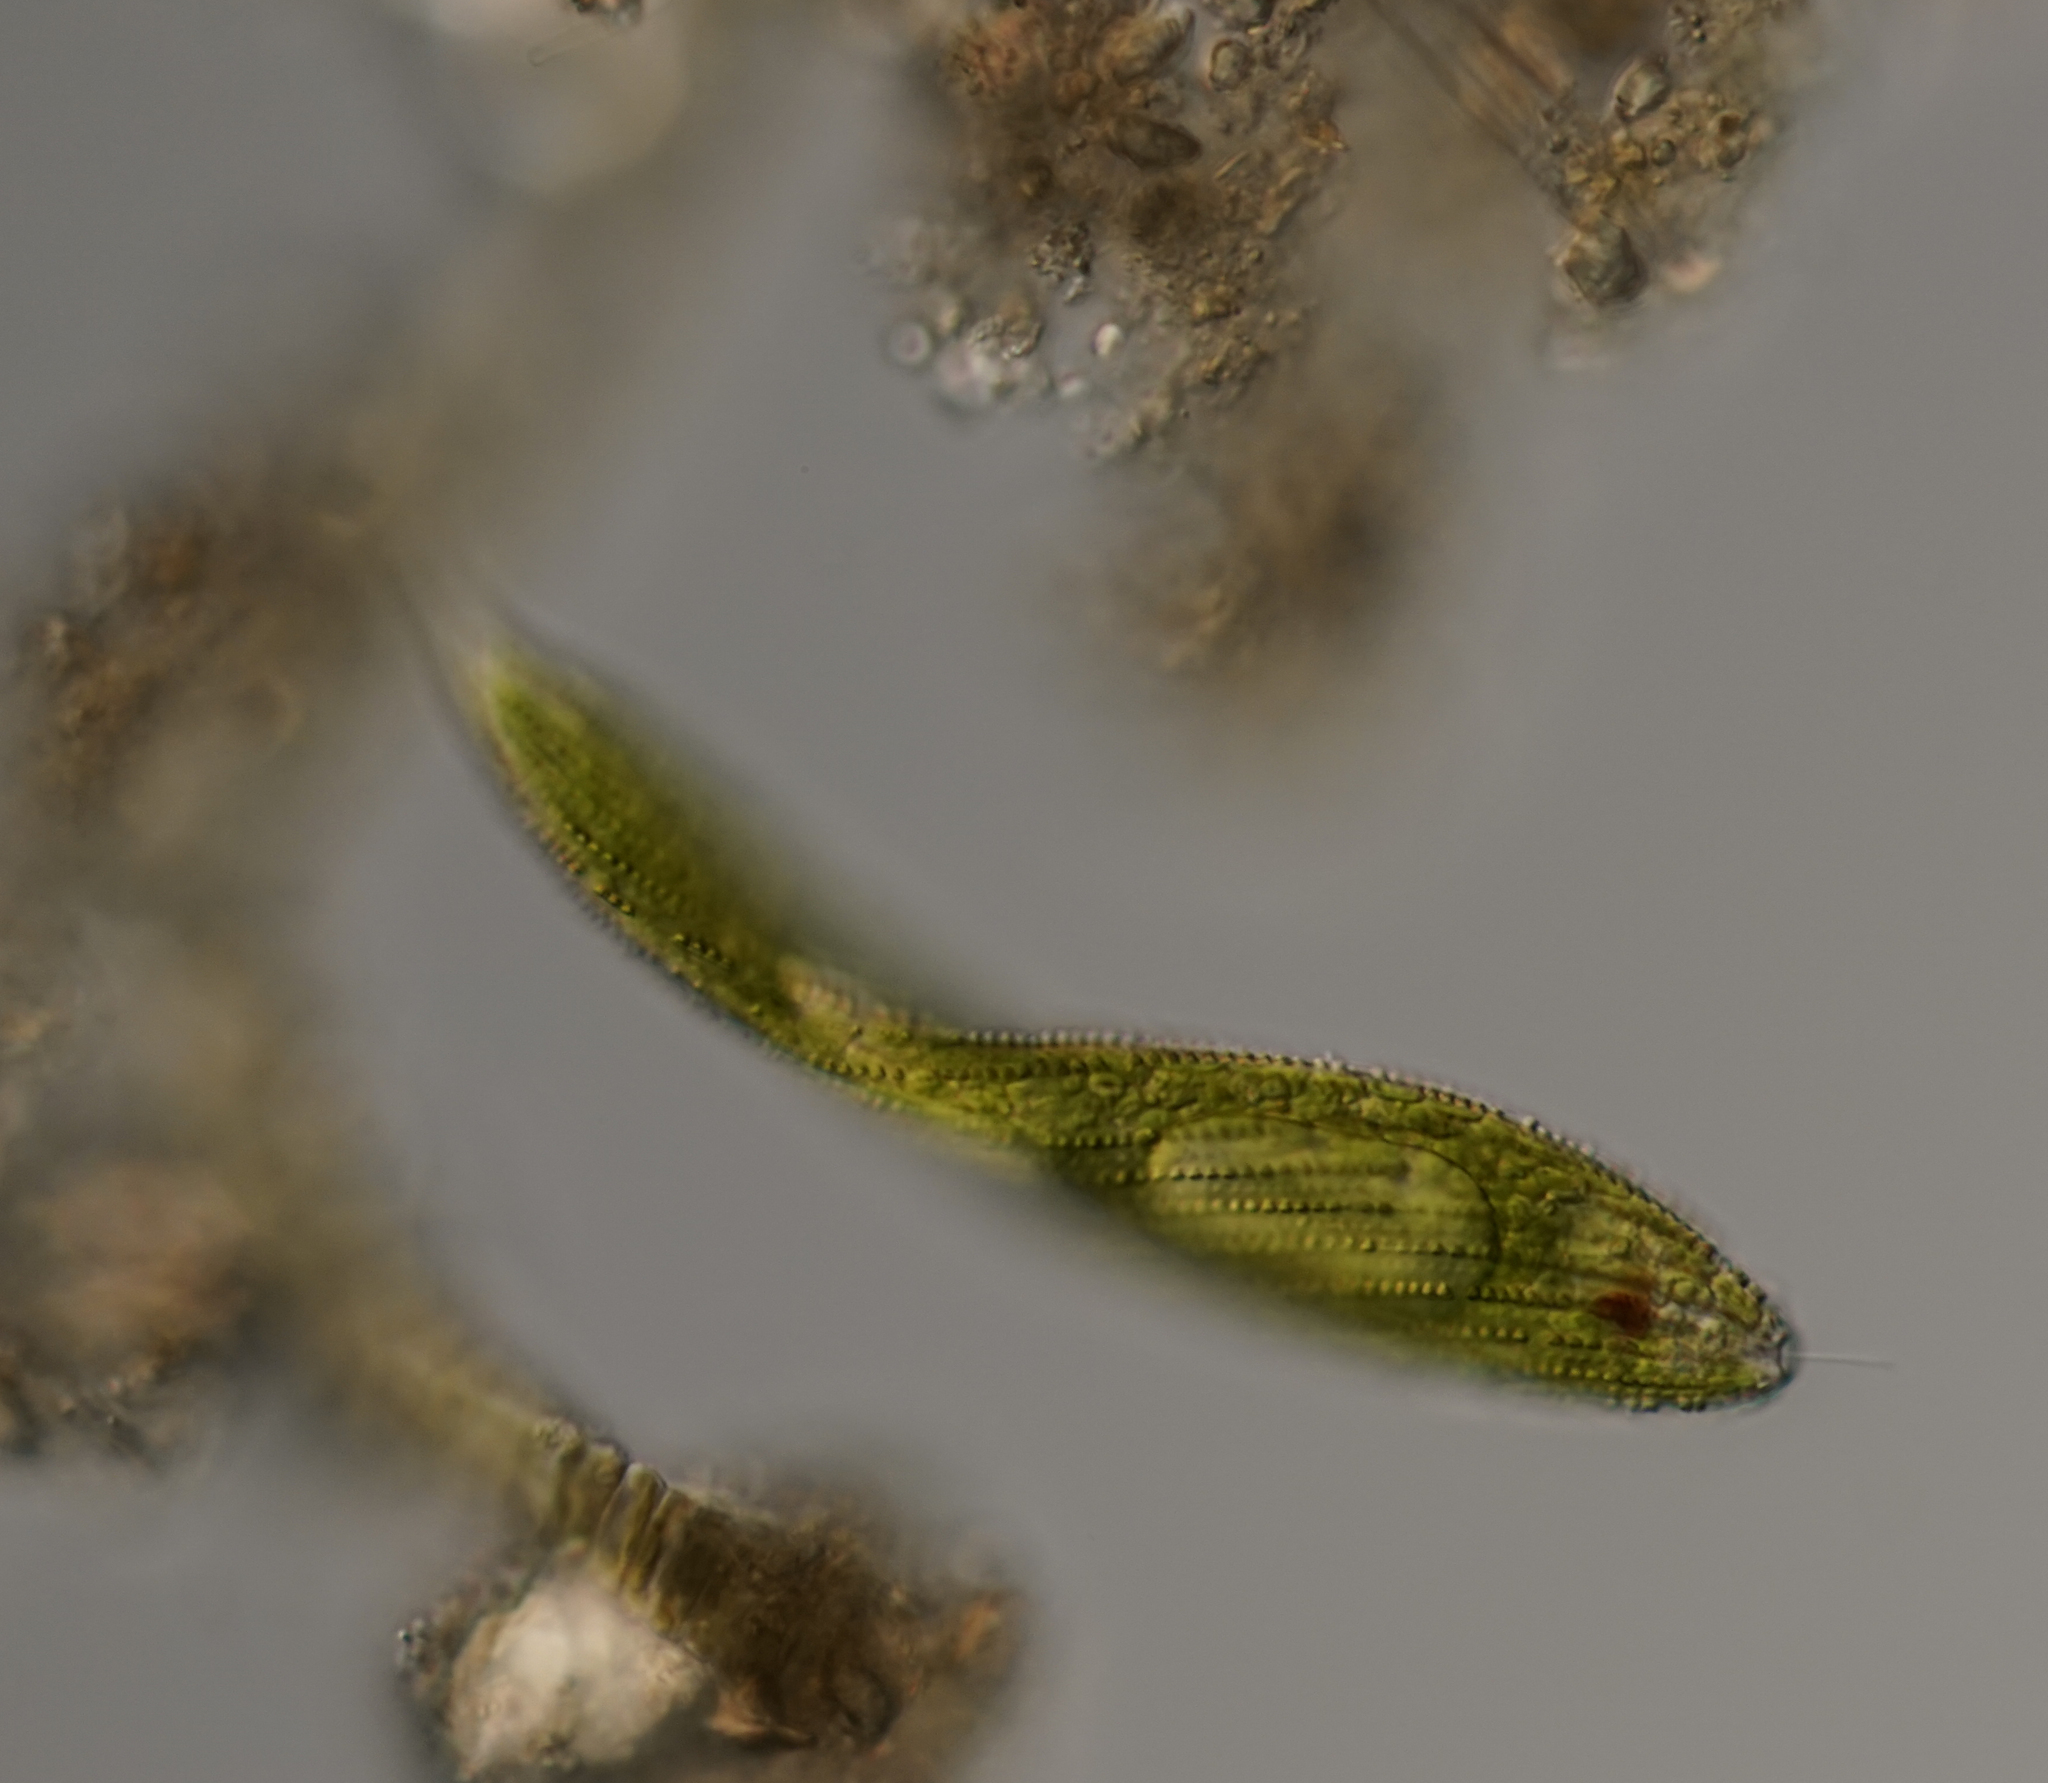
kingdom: Protozoa
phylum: Euglenozoa
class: Euglenoidea
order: Euglenida
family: Phacidae
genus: Lepocinclis
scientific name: Lepocinclis fusca
